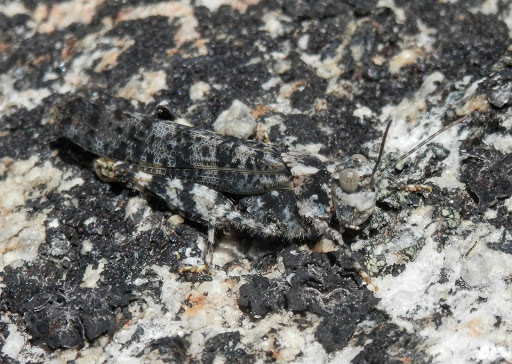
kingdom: Animalia
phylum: Arthropoda
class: Insecta
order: Orthoptera
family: Acrididae
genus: Circotettix
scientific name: Circotettix shastanus
